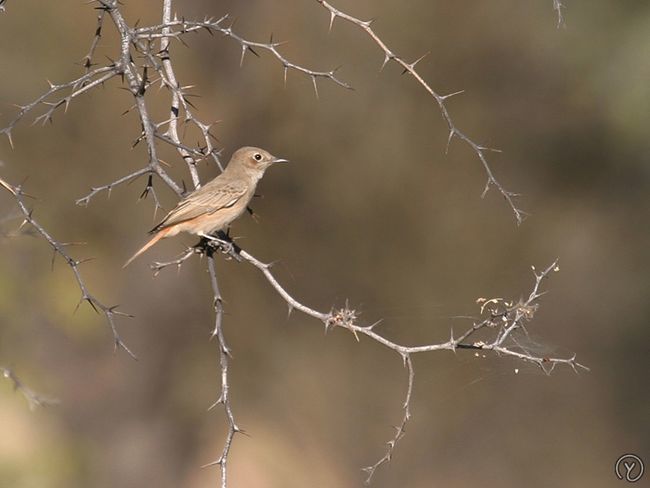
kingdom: Animalia
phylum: Chordata
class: Aves
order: Passeriformes
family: Muscicapidae
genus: Oenanthe
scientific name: Oenanthe familiaris
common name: Familiar chat
